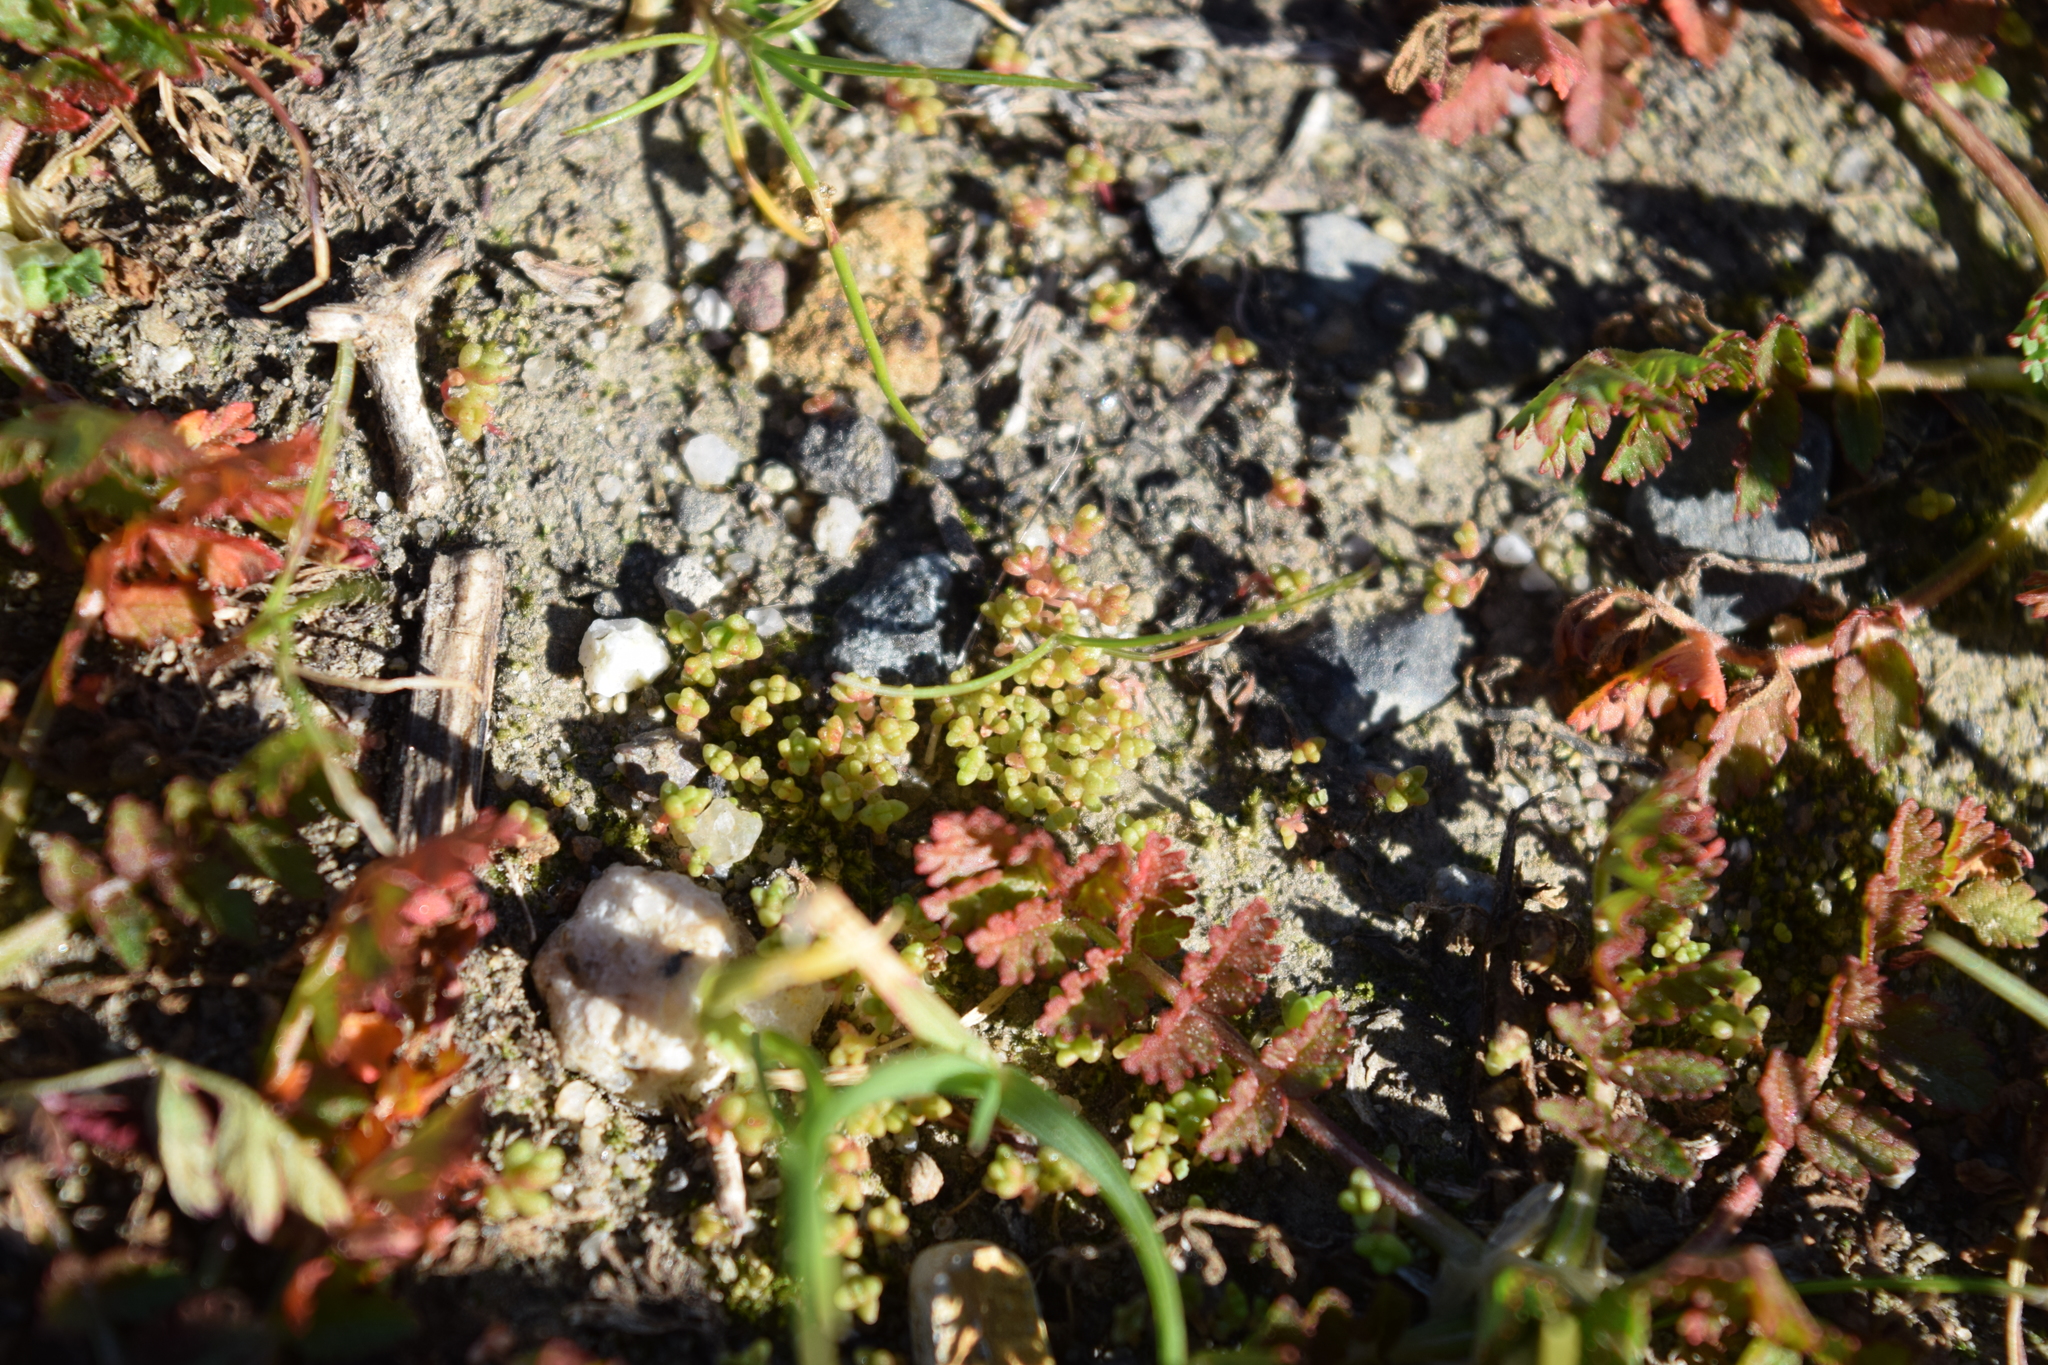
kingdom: Plantae
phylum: Tracheophyta
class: Magnoliopsida
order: Saxifragales
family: Crassulaceae
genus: Crassula
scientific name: Crassula connata
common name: Erect pygmyweed
